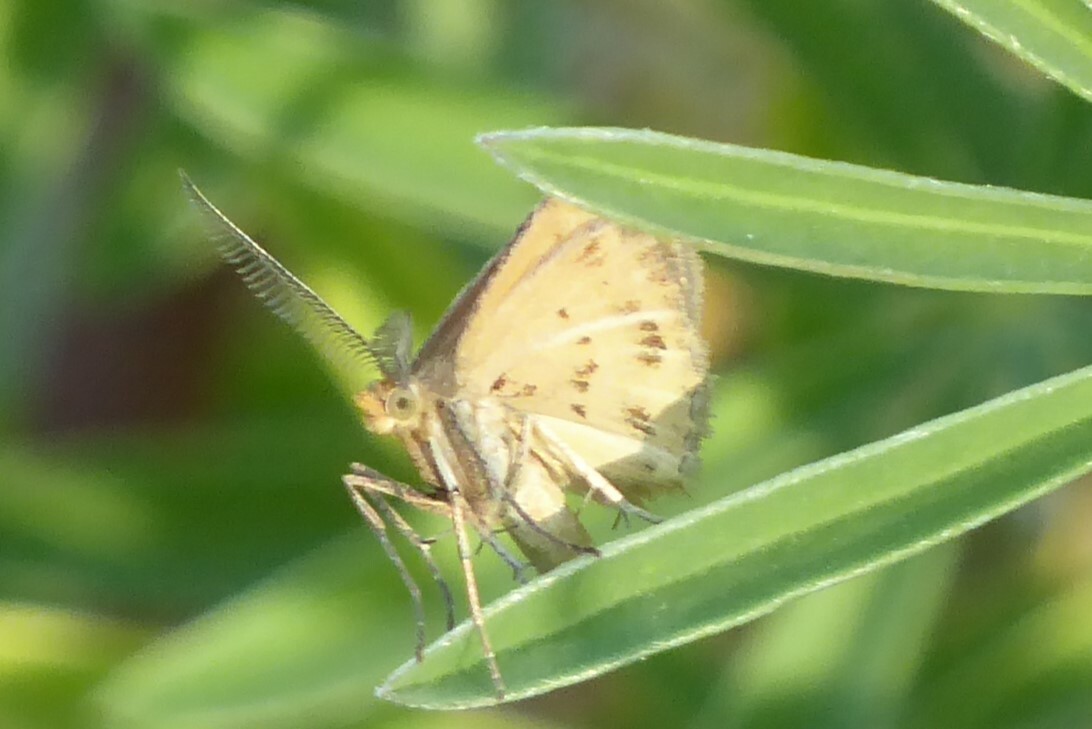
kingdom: Animalia
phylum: Arthropoda
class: Insecta
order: Lepidoptera
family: Geometridae
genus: Asaphodes
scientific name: Asaphodes abrogata
